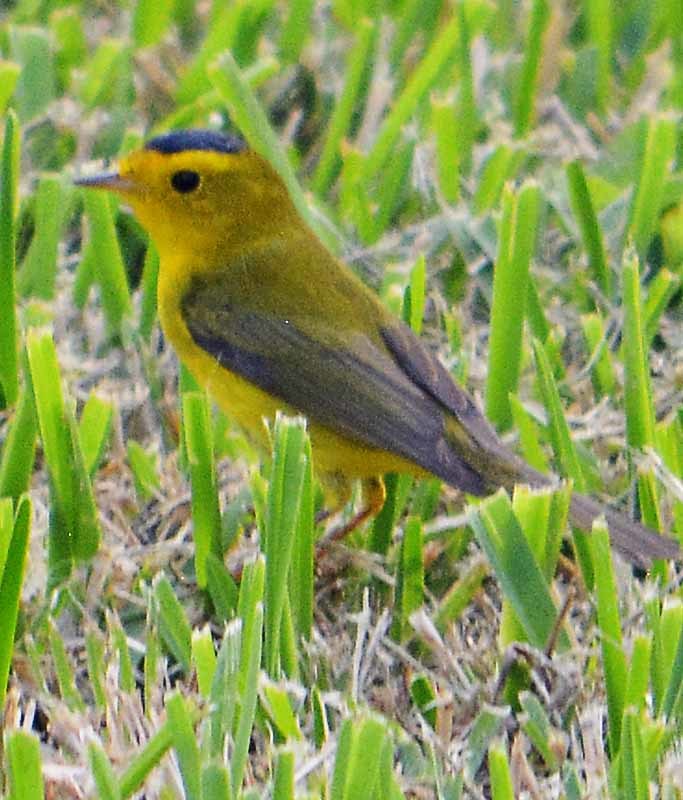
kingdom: Animalia
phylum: Chordata
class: Aves
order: Passeriformes
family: Parulidae
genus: Cardellina
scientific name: Cardellina pusilla
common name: Wilson's warbler
